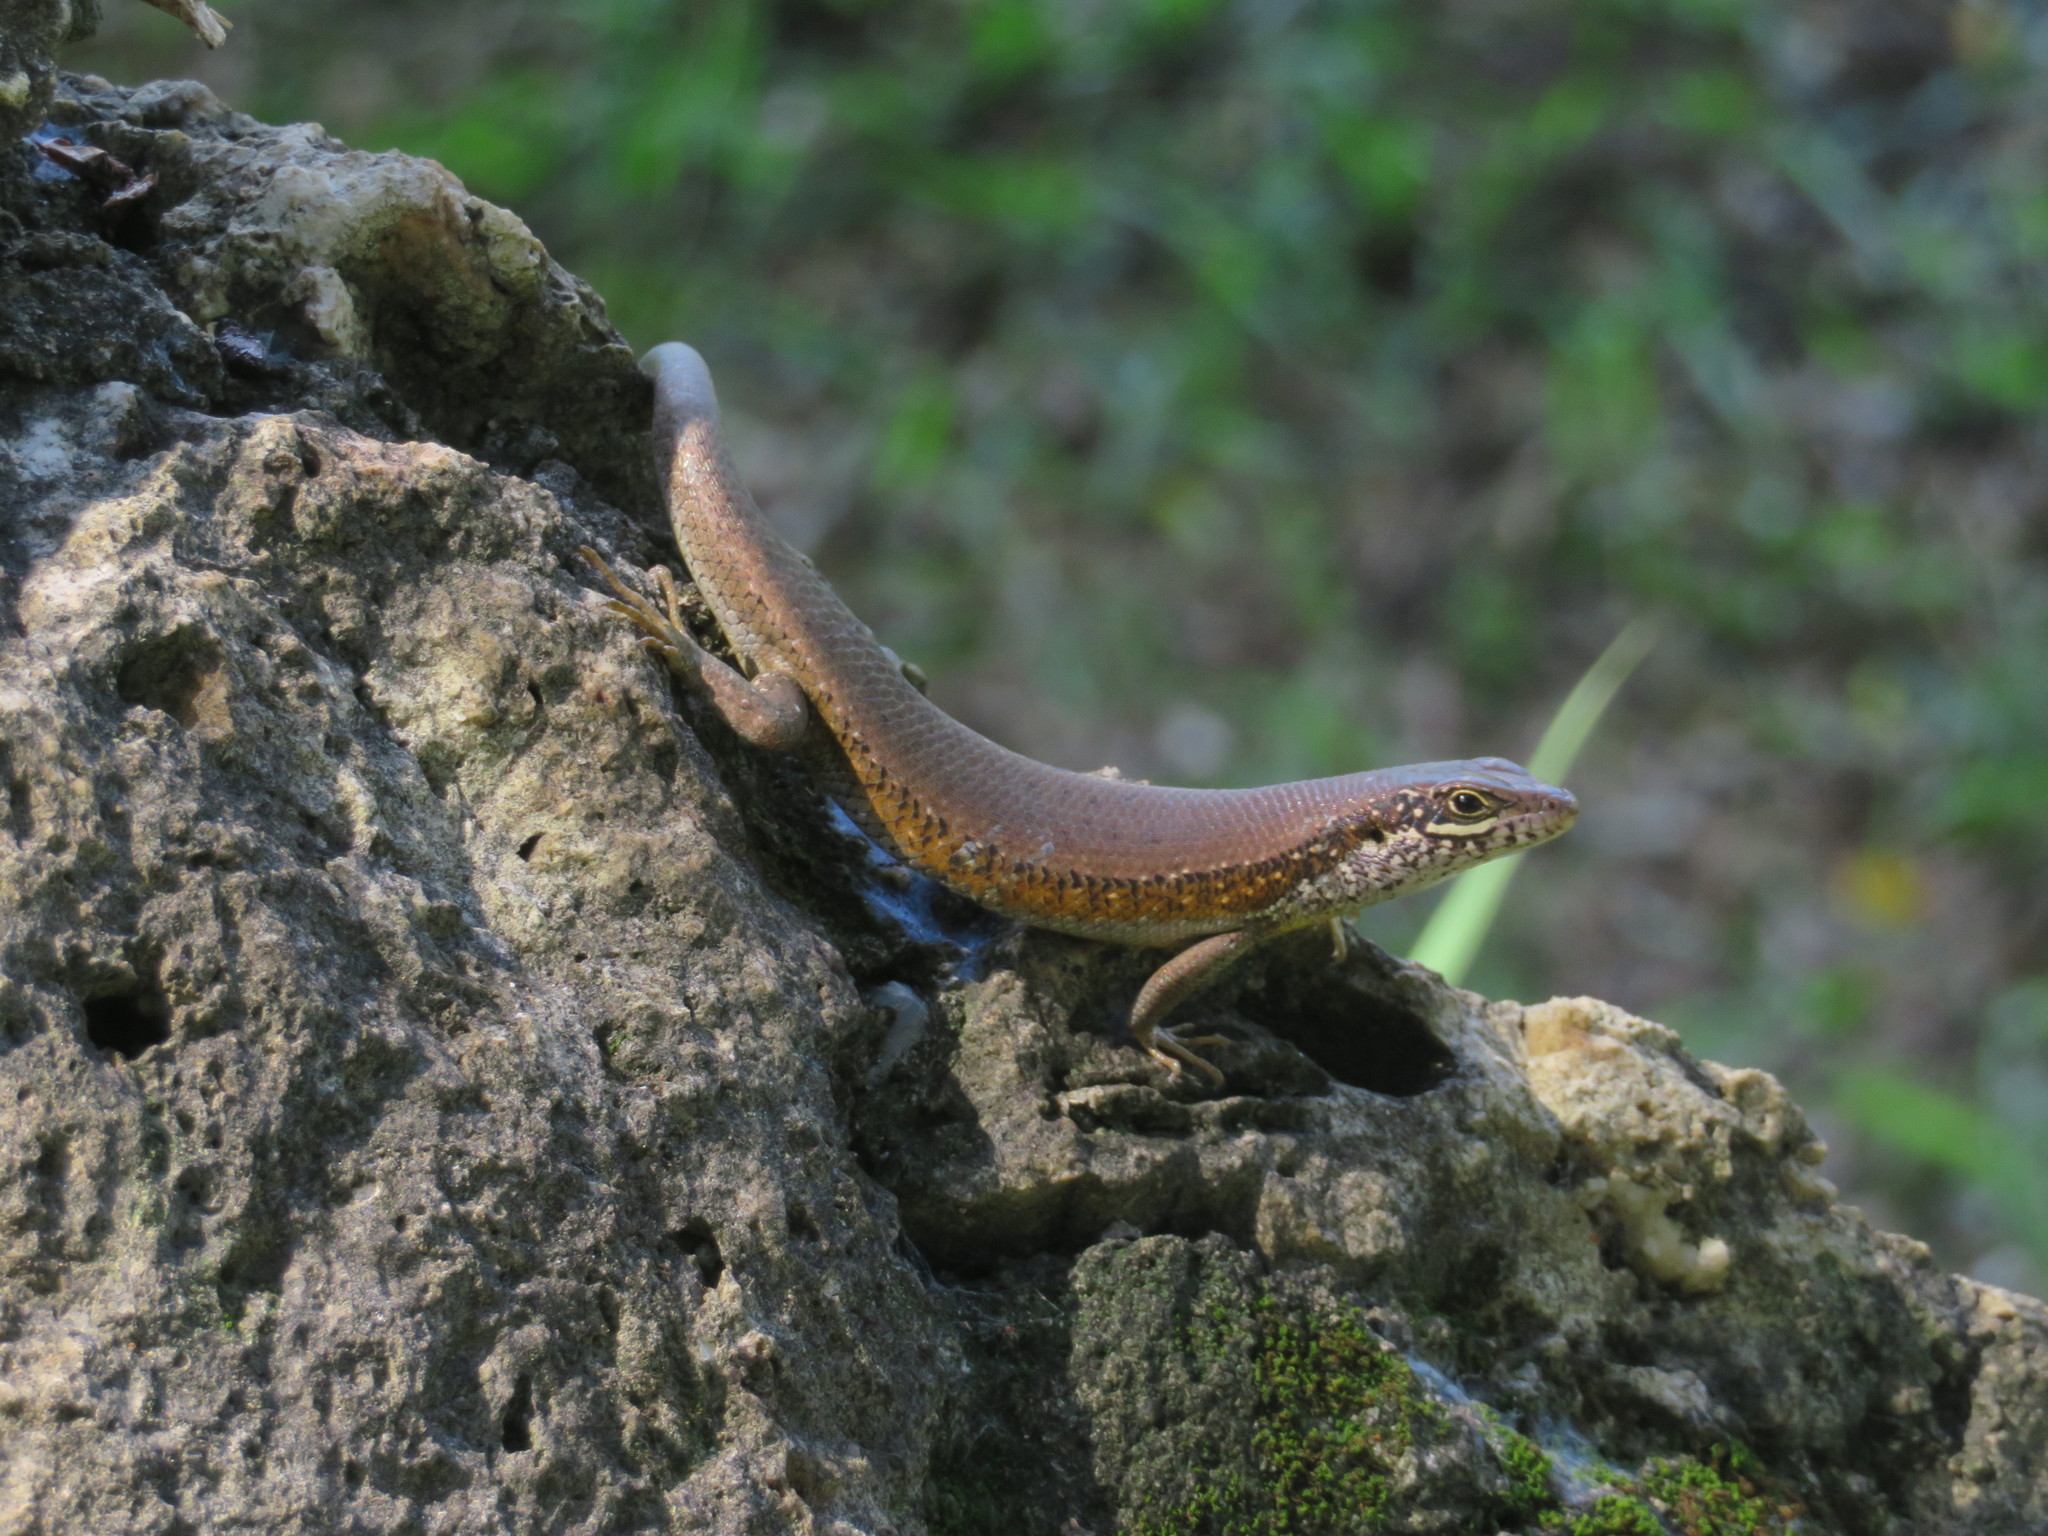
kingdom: Animalia
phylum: Chordata
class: Squamata
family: Scincidae
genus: Trachylepis
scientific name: Trachylepis maculilabris
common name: Speckle-lipped mabuya
